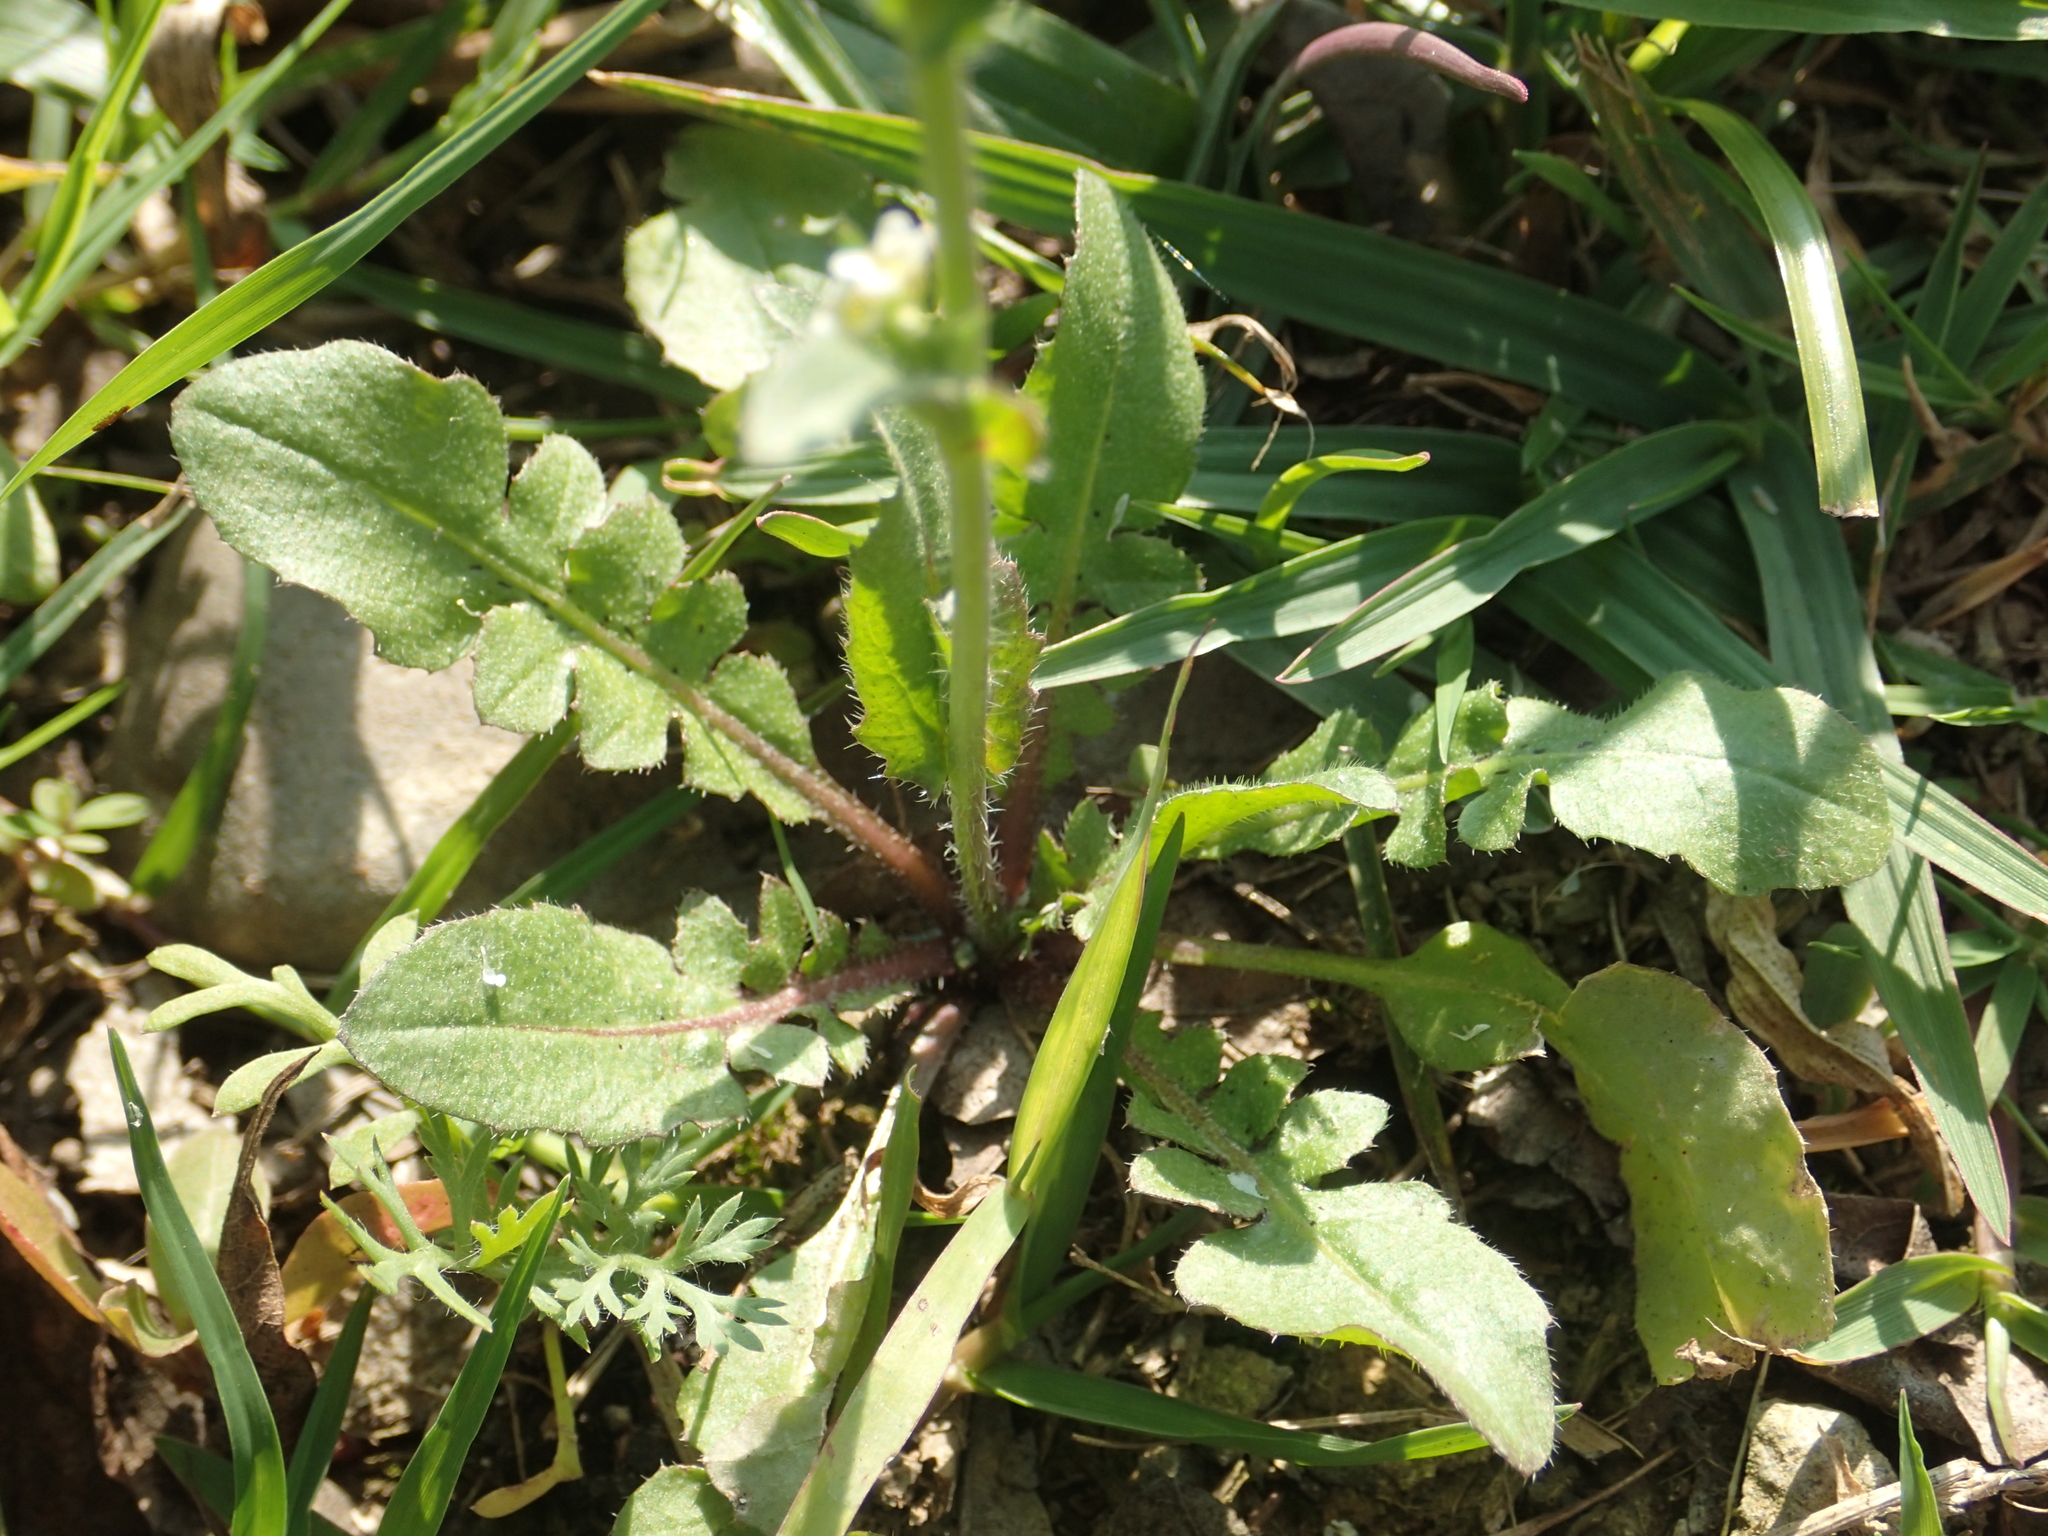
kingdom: Plantae
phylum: Tracheophyta
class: Magnoliopsida
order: Brassicales
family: Brassicaceae
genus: Capsella
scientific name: Capsella bursa-pastoris
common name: Shepherd's purse
